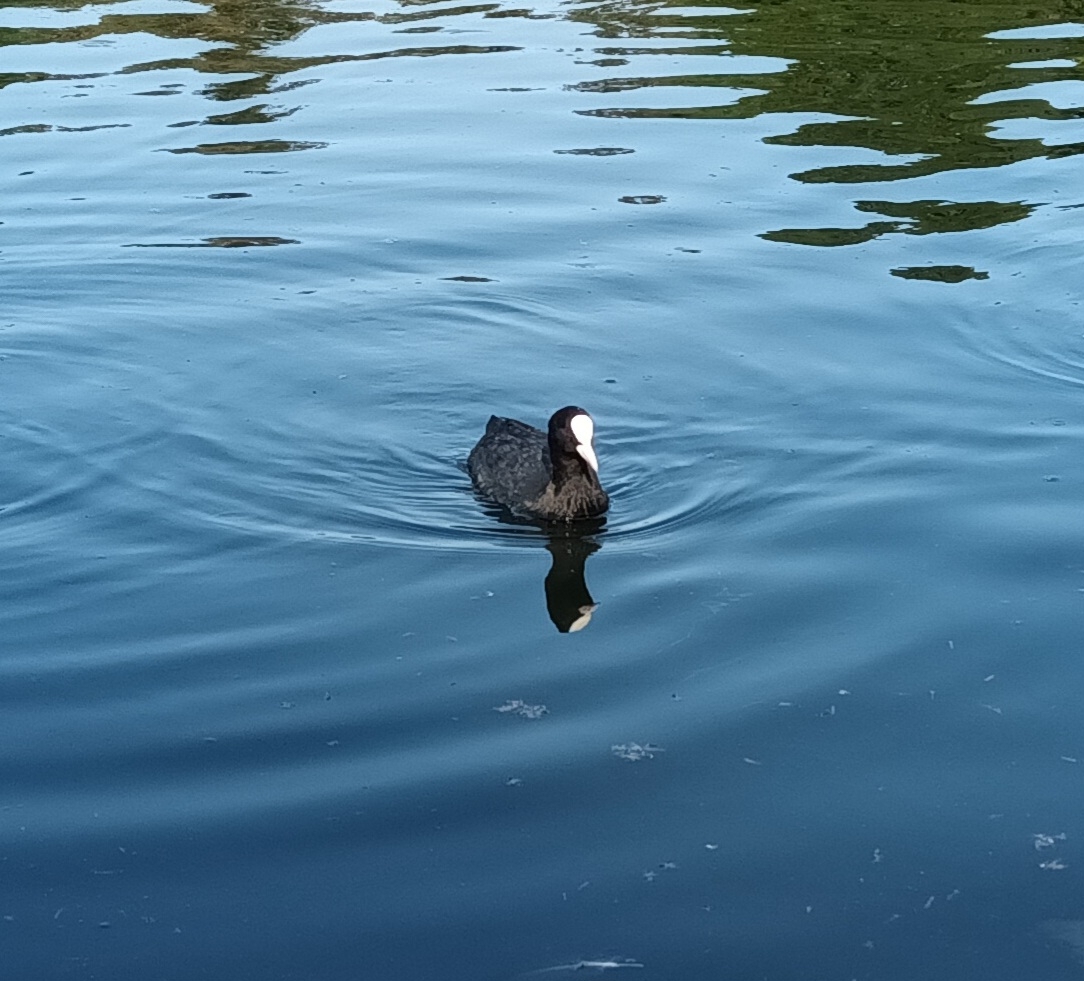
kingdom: Animalia
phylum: Chordata
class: Aves
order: Gruiformes
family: Rallidae
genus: Fulica
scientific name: Fulica atra
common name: Eurasian coot
